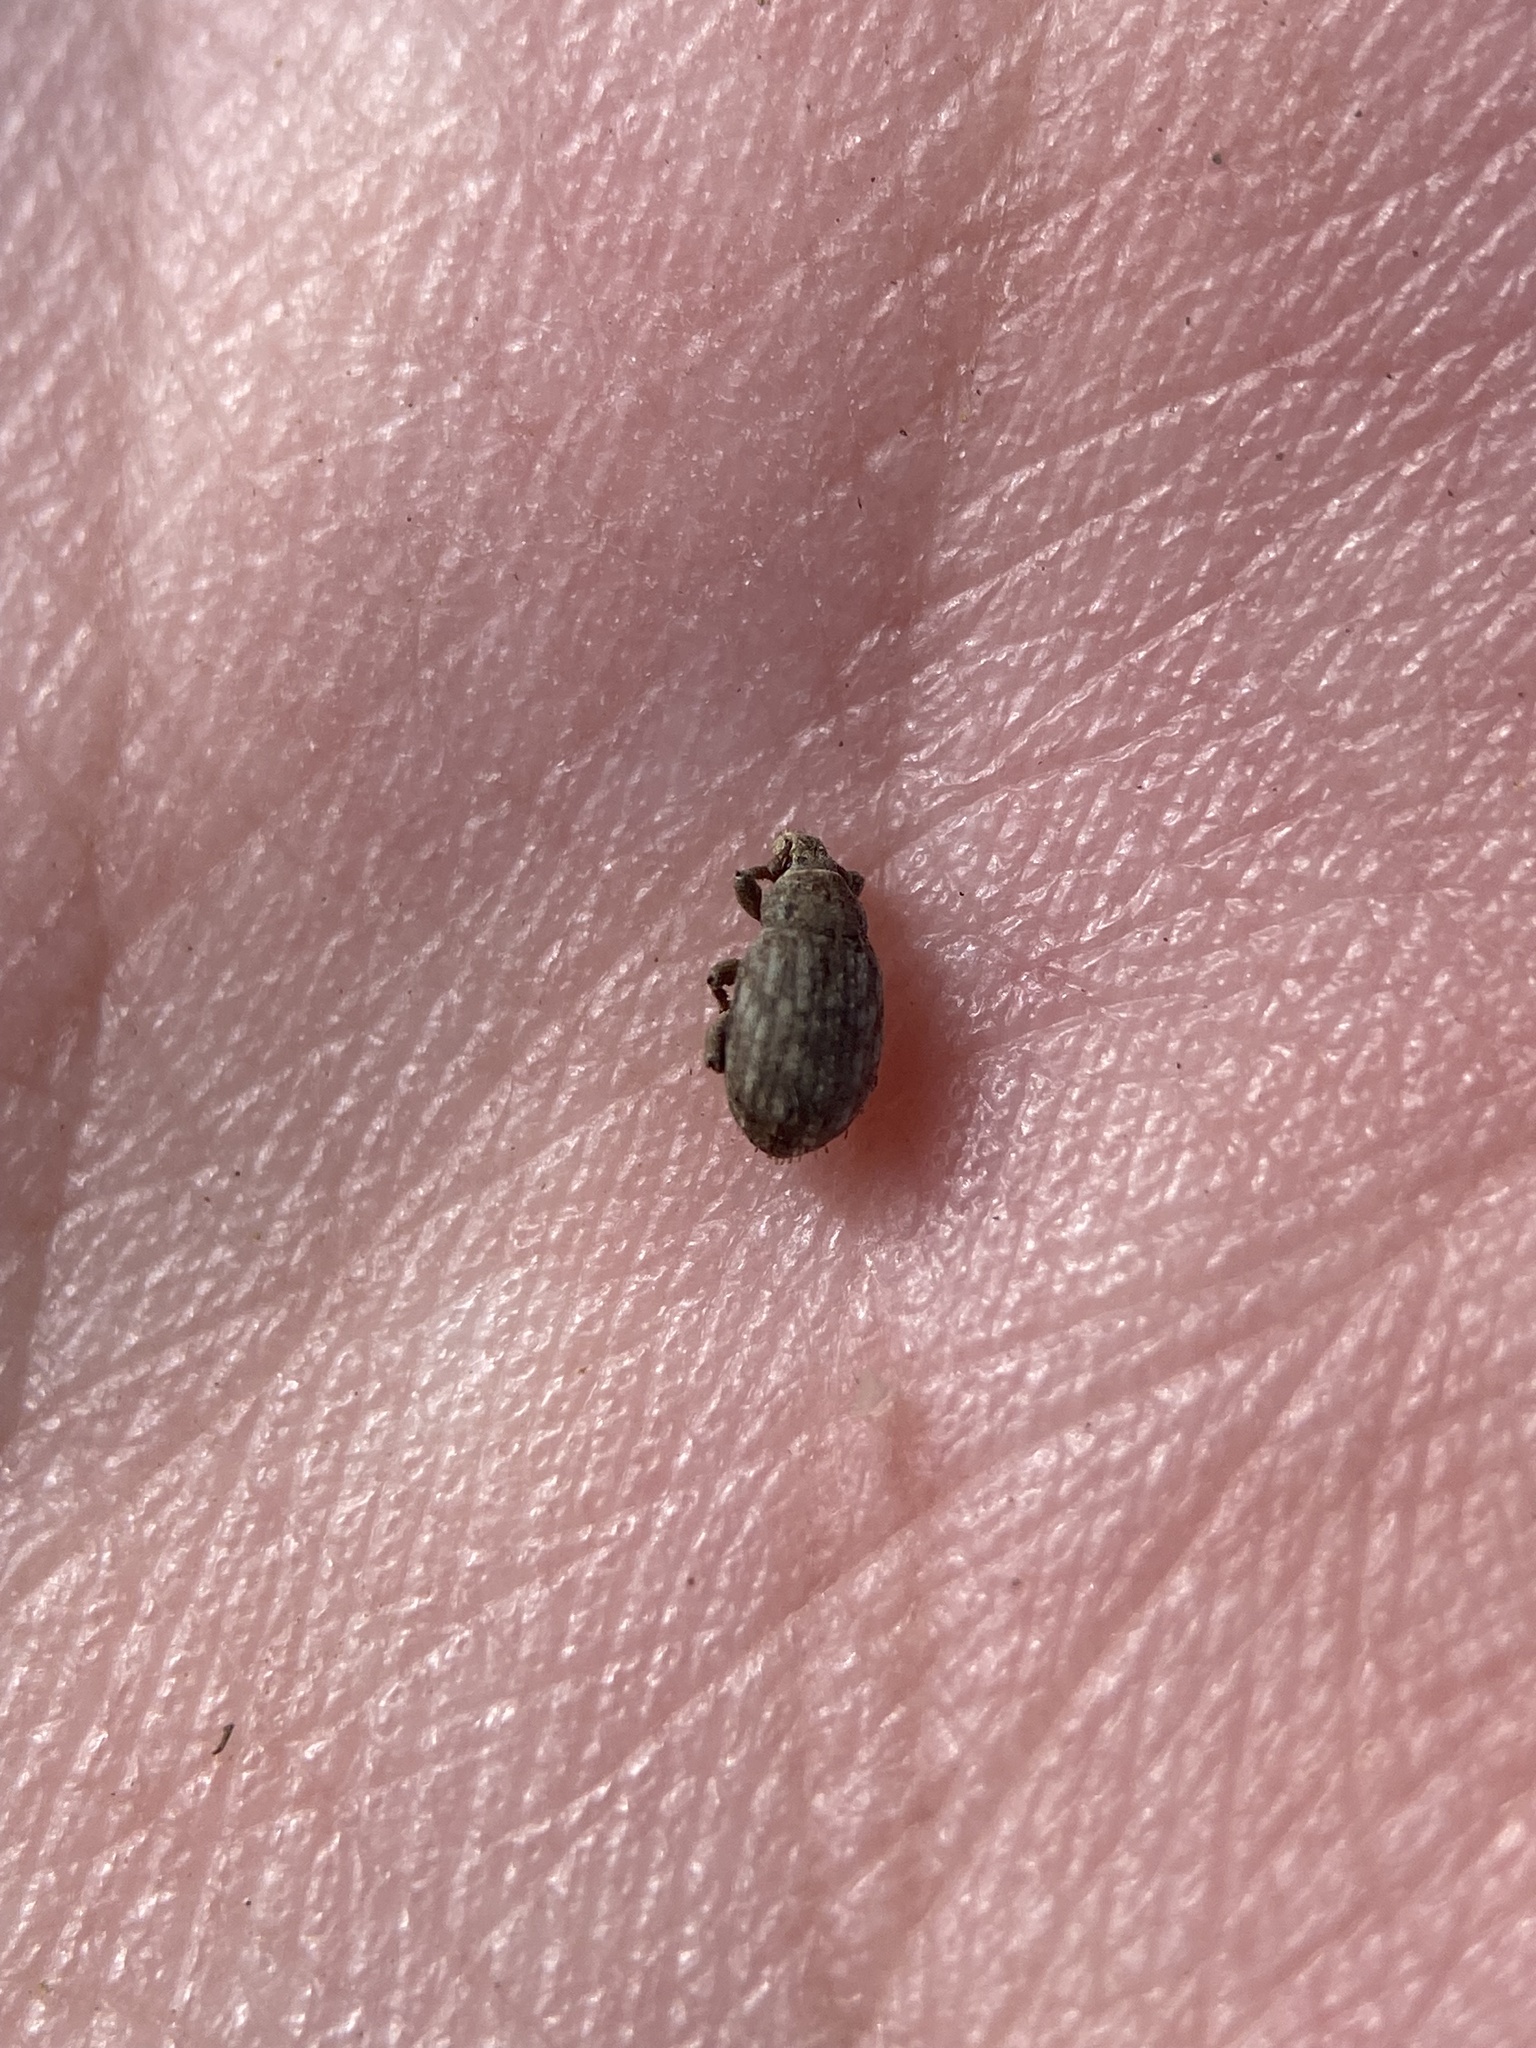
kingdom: Animalia
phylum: Arthropoda
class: Insecta
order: Coleoptera
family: Curculionidae
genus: Romualdius
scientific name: Romualdius scaber
